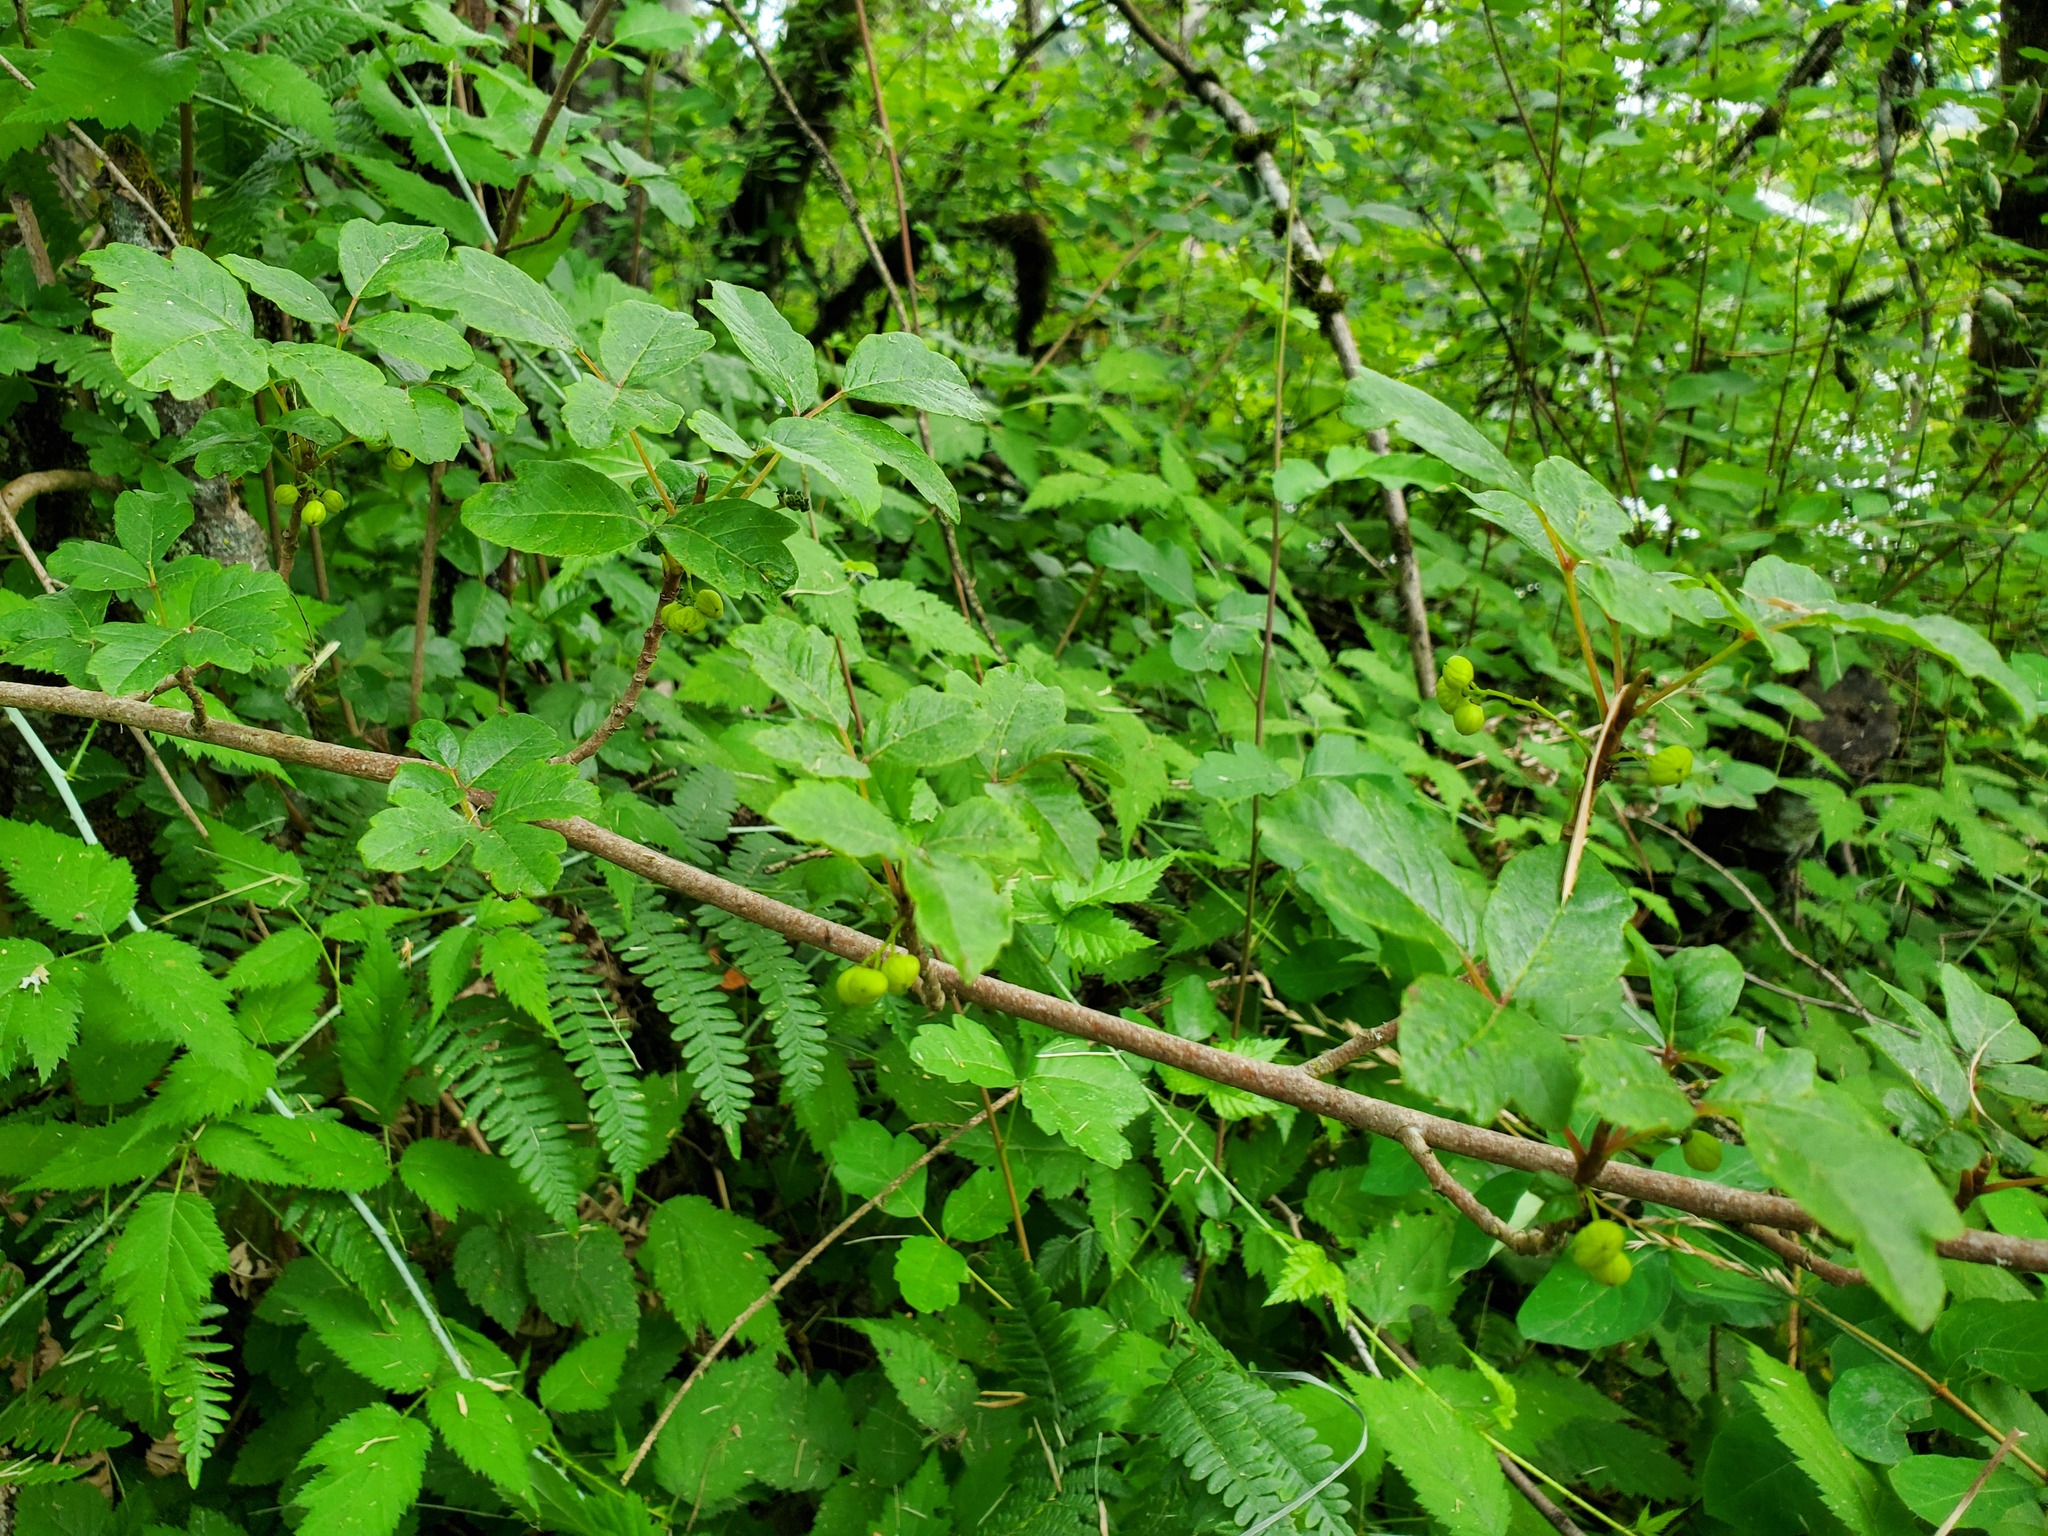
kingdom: Plantae
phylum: Tracheophyta
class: Magnoliopsida
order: Sapindales
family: Anacardiaceae
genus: Toxicodendron
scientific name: Toxicodendron diversilobum
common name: Pacific poison-oak
